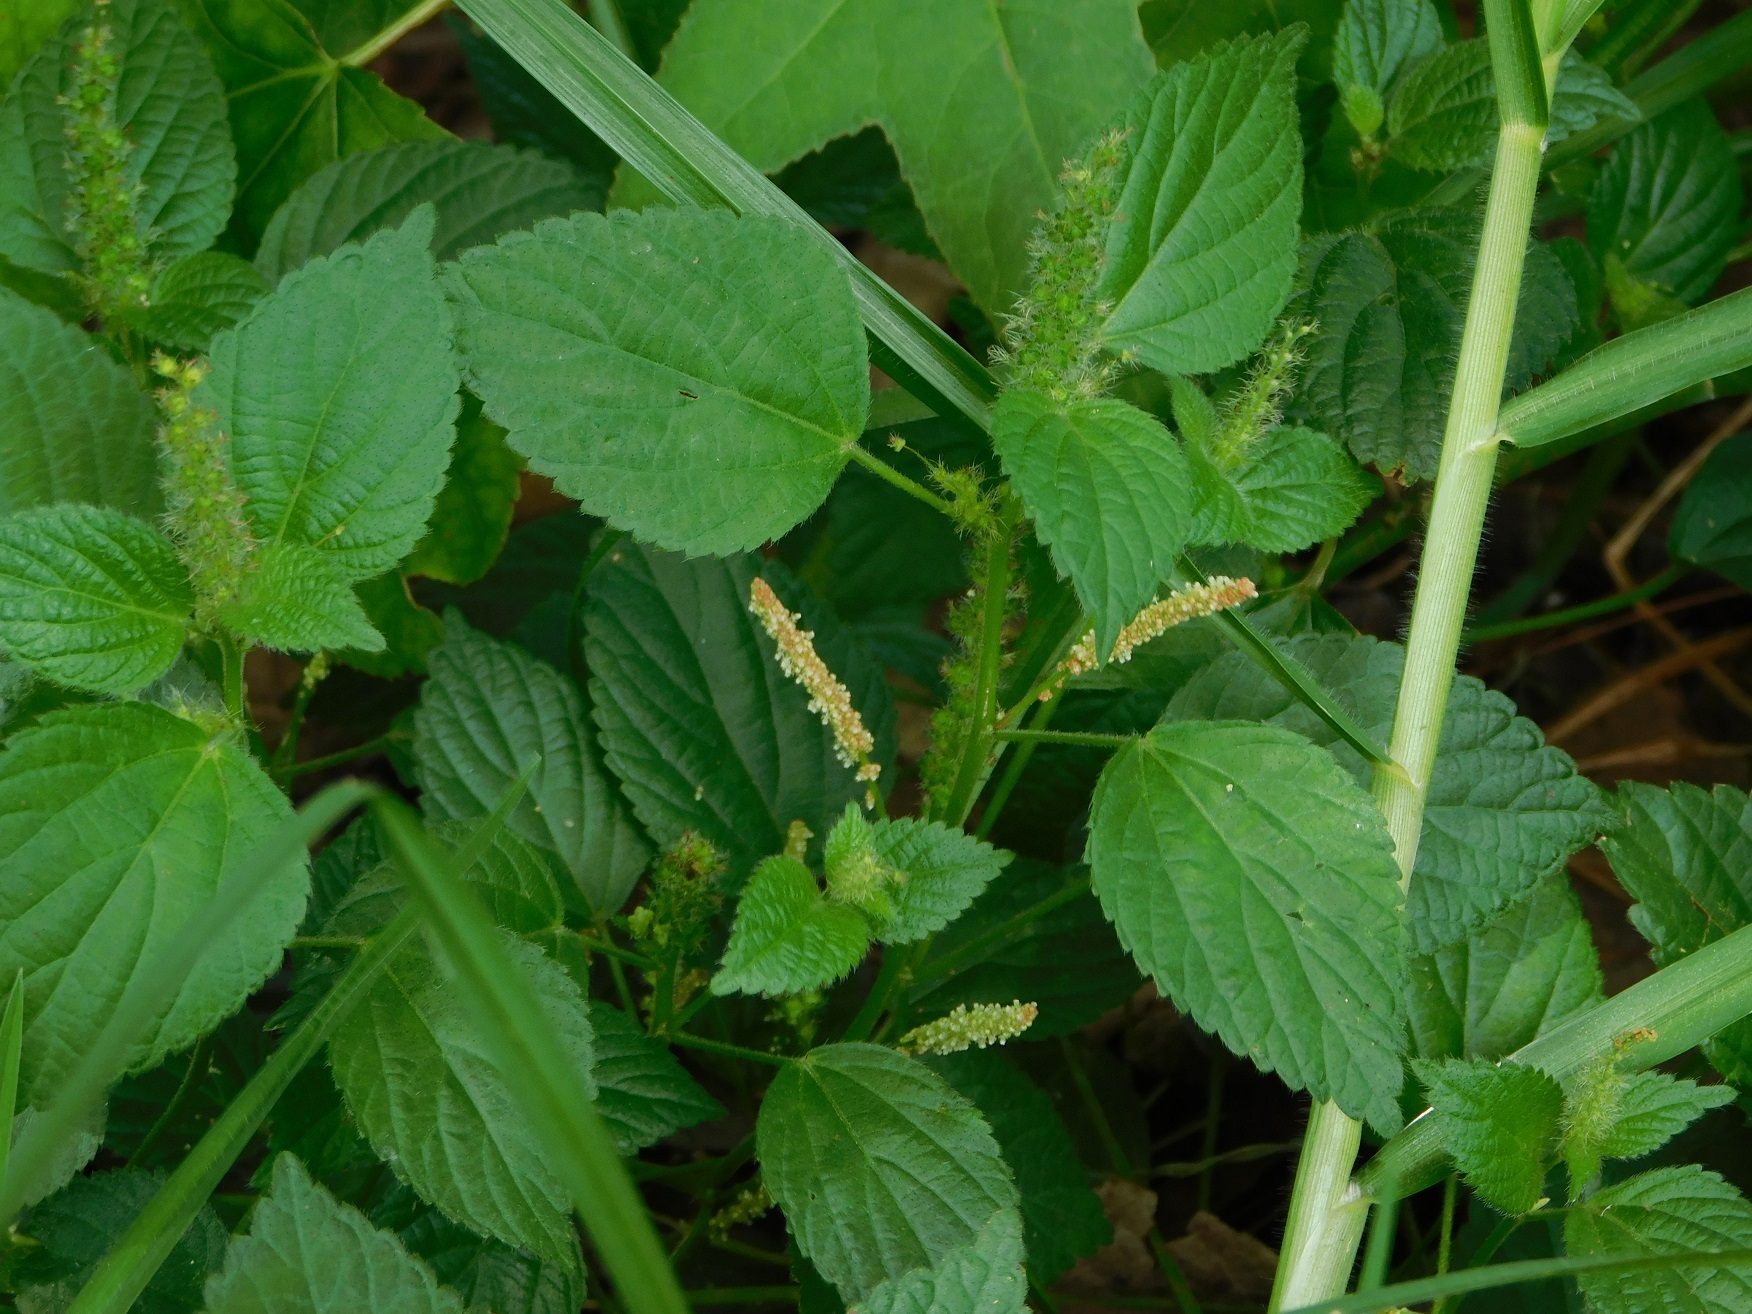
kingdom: Plantae
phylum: Tracheophyta
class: Magnoliopsida
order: Malpighiales
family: Euphorbiaceae
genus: Acalypha
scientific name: Acalypha phleoides
